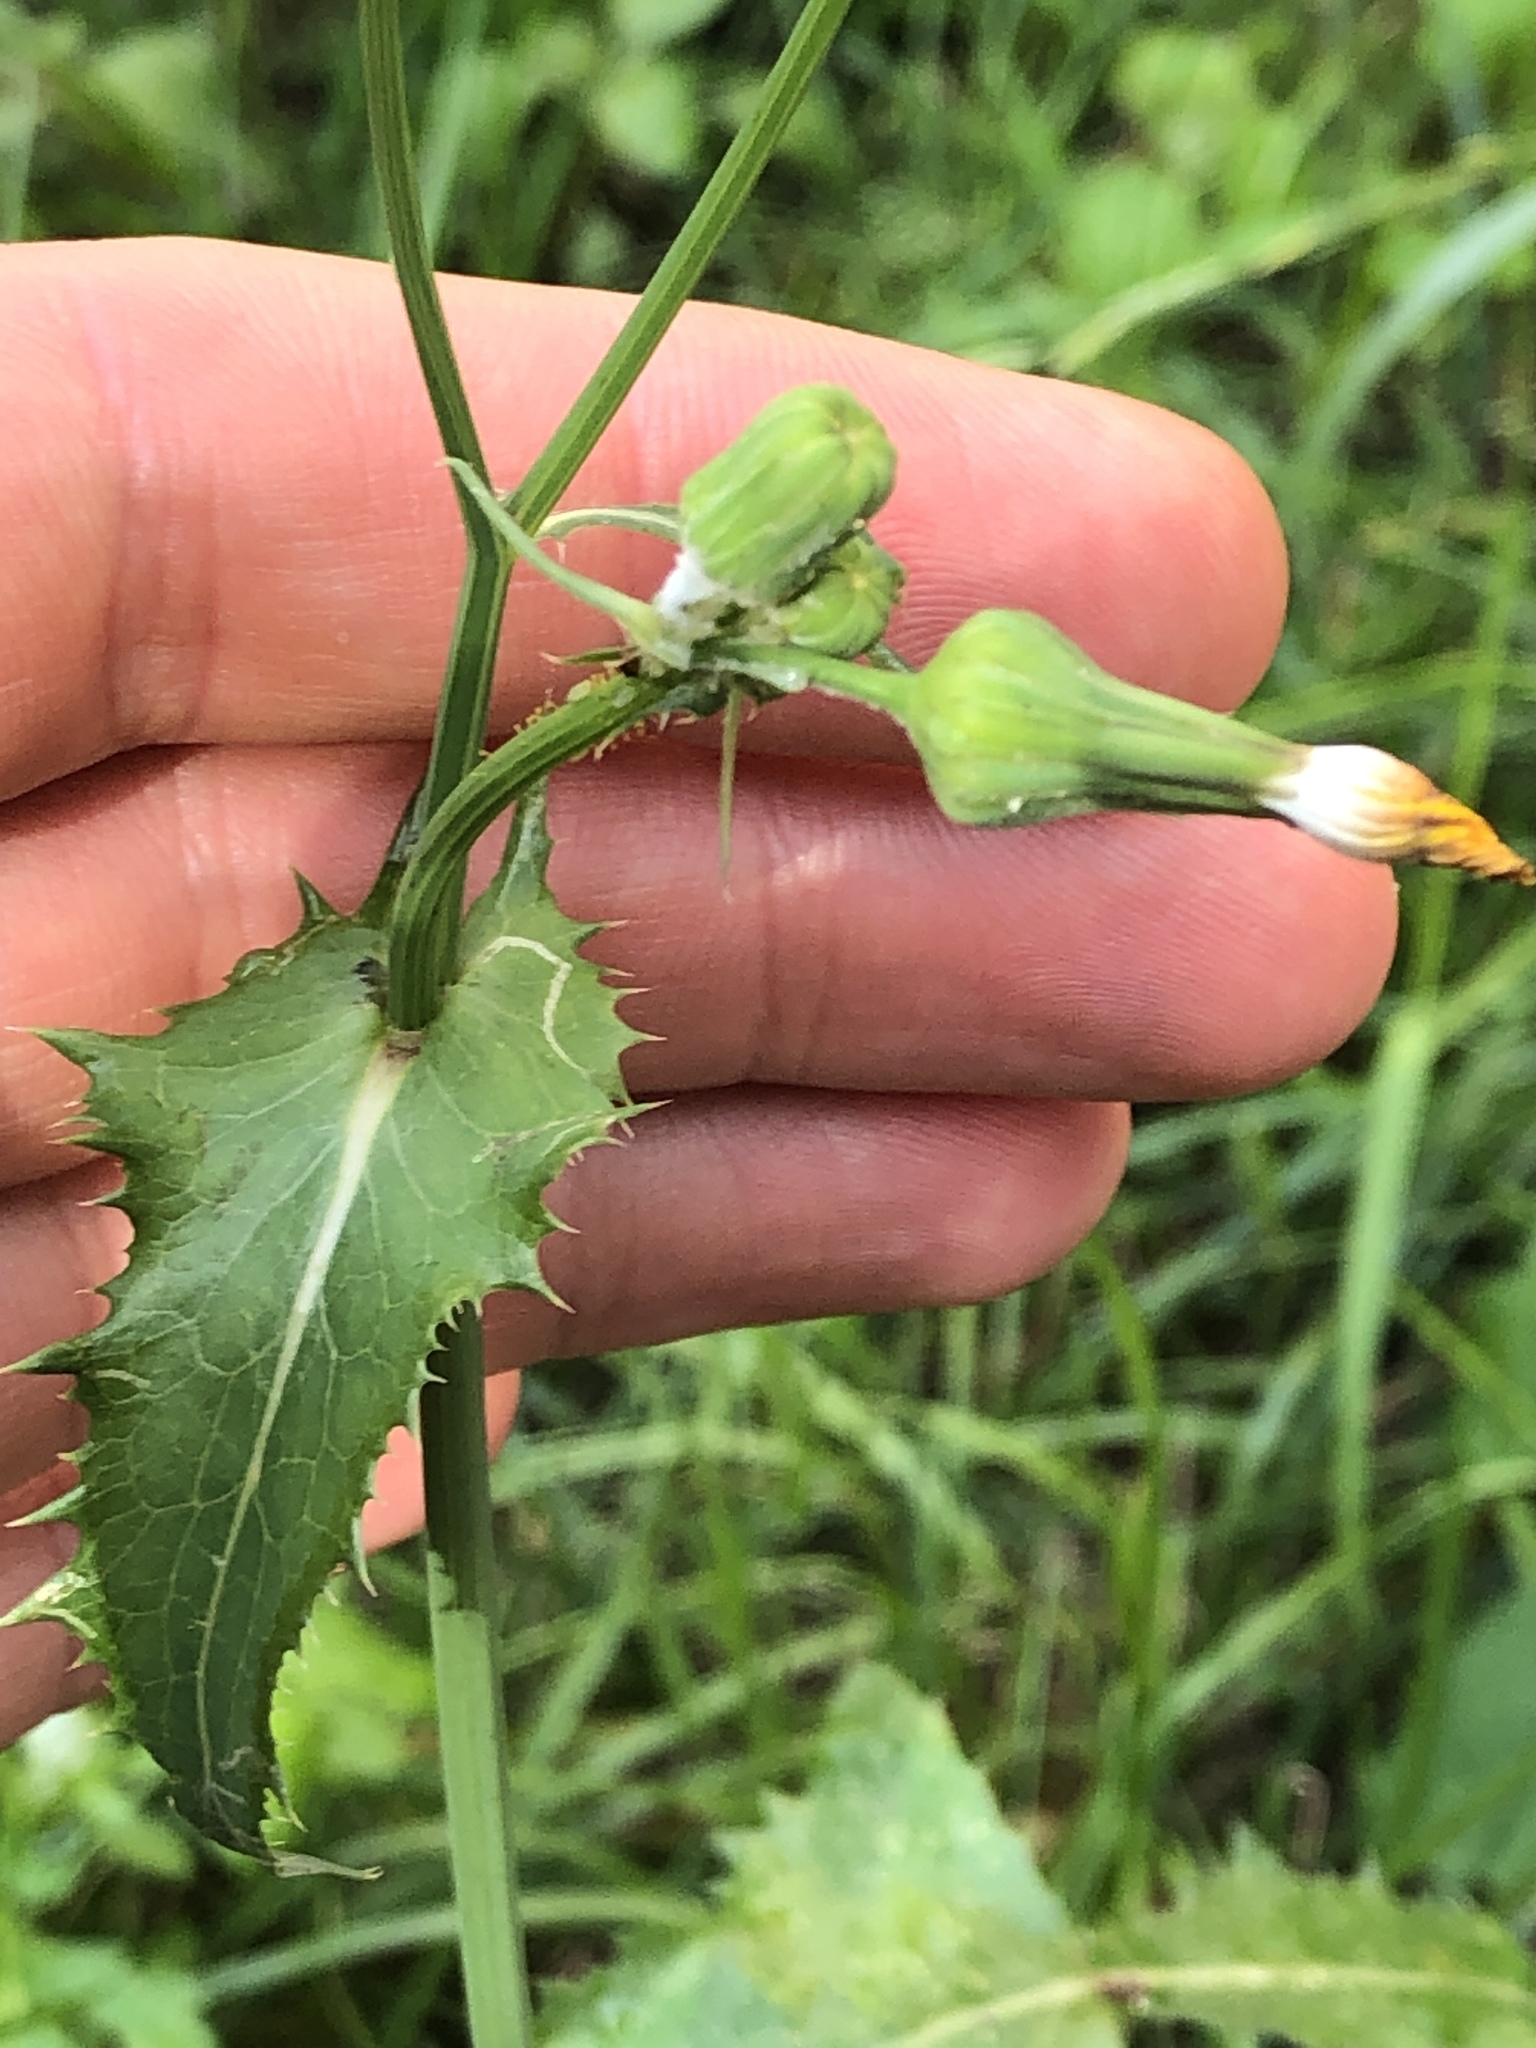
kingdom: Plantae
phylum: Tracheophyta
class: Magnoliopsida
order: Asterales
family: Asteraceae
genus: Sonchus
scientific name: Sonchus oleraceus
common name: Common sowthistle
